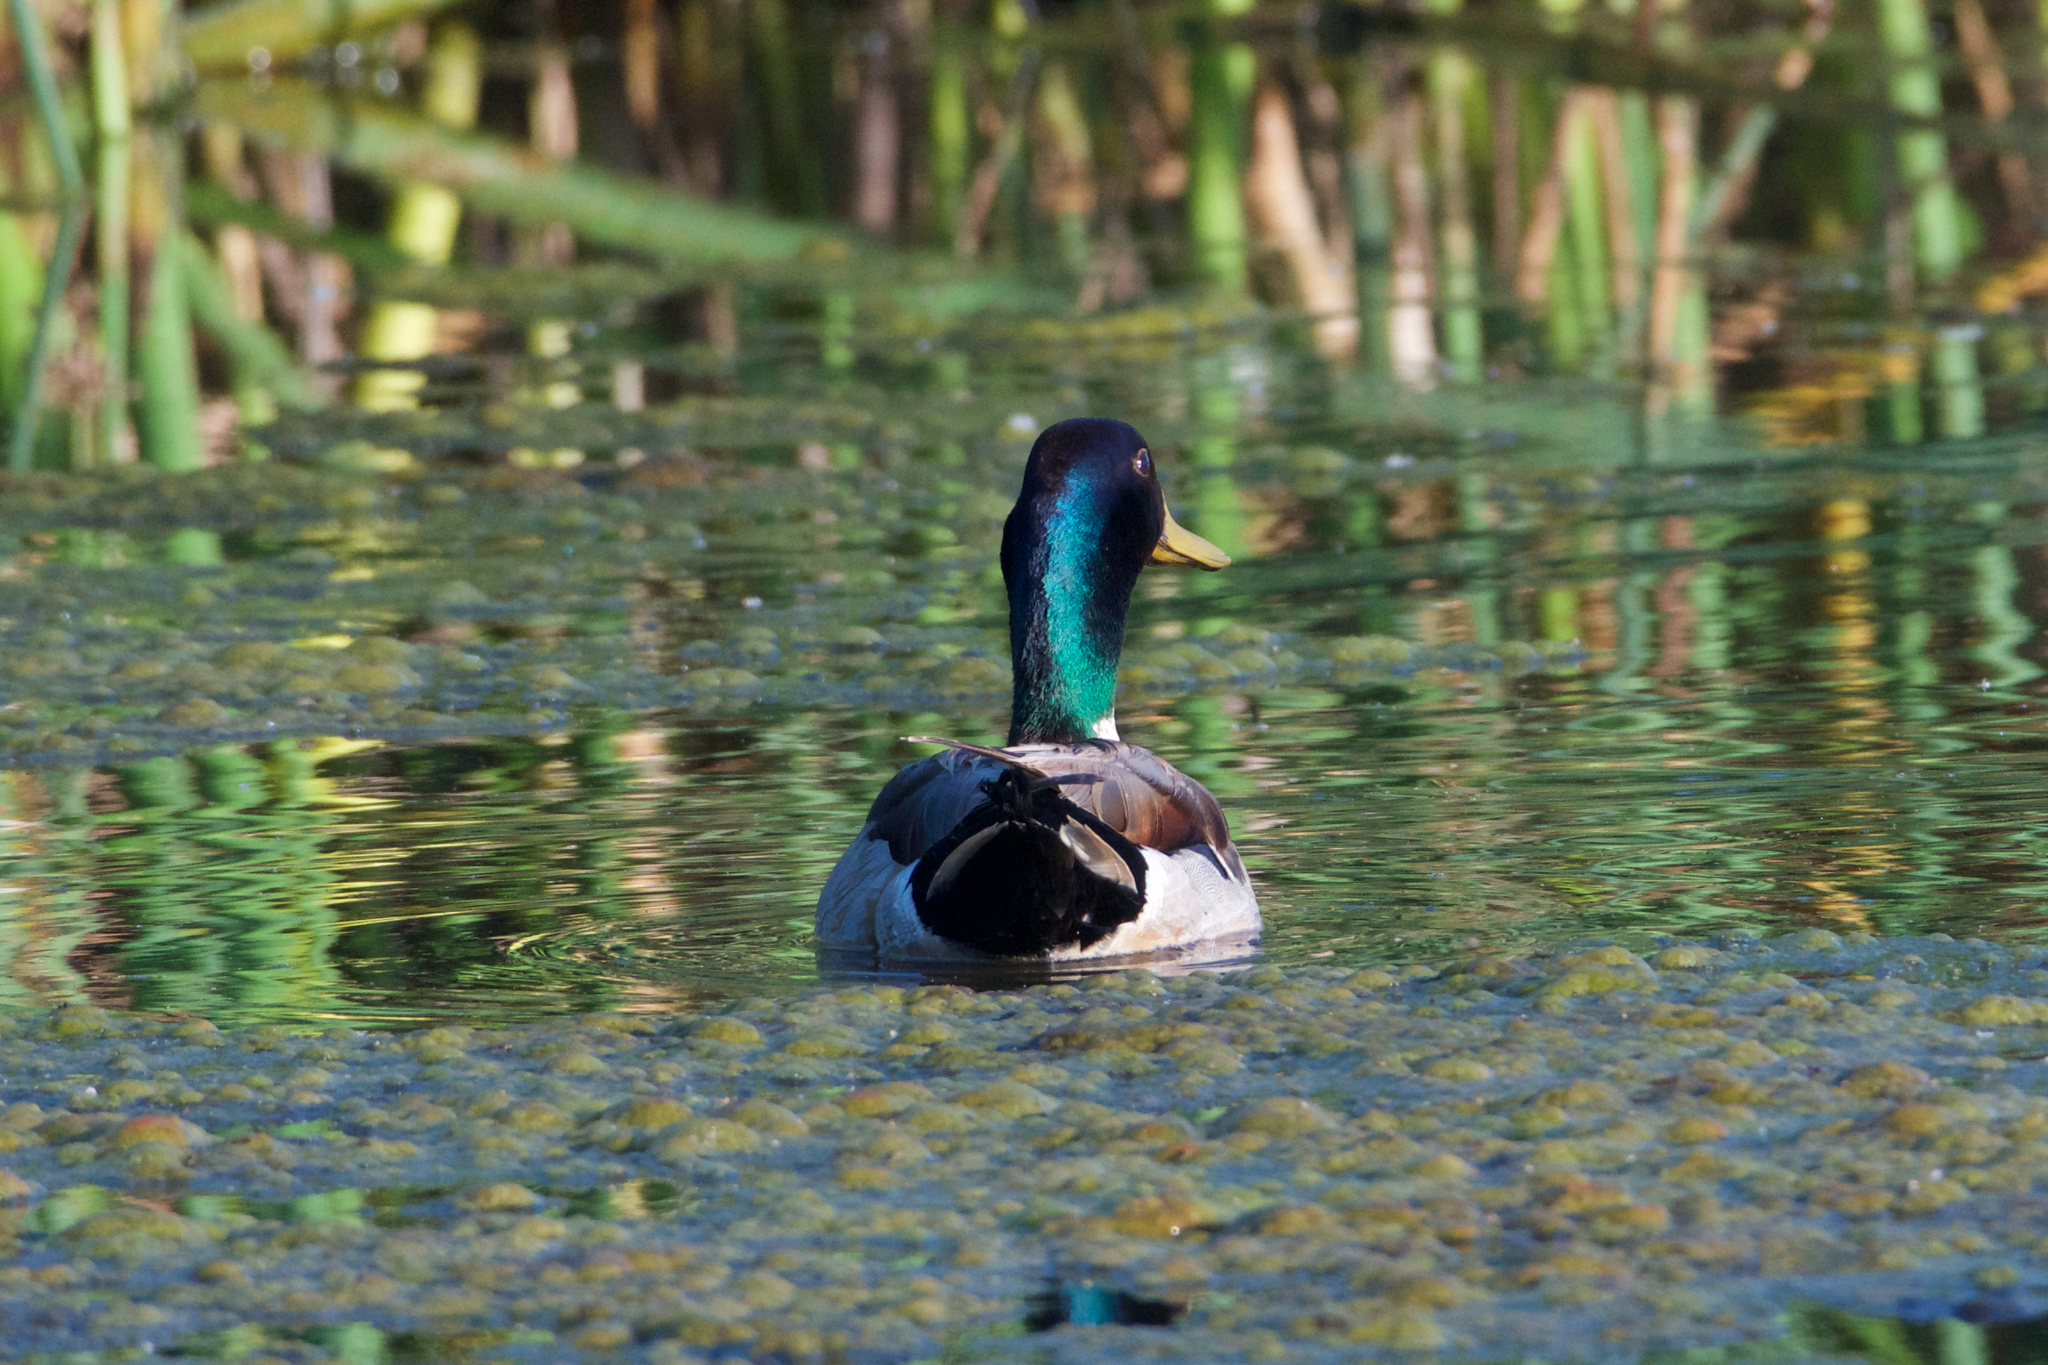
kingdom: Animalia
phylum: Chordata
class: Aves
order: Anseriformes
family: Anatidae
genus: Anas
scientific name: Anas platyrhynchos
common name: Mallard
